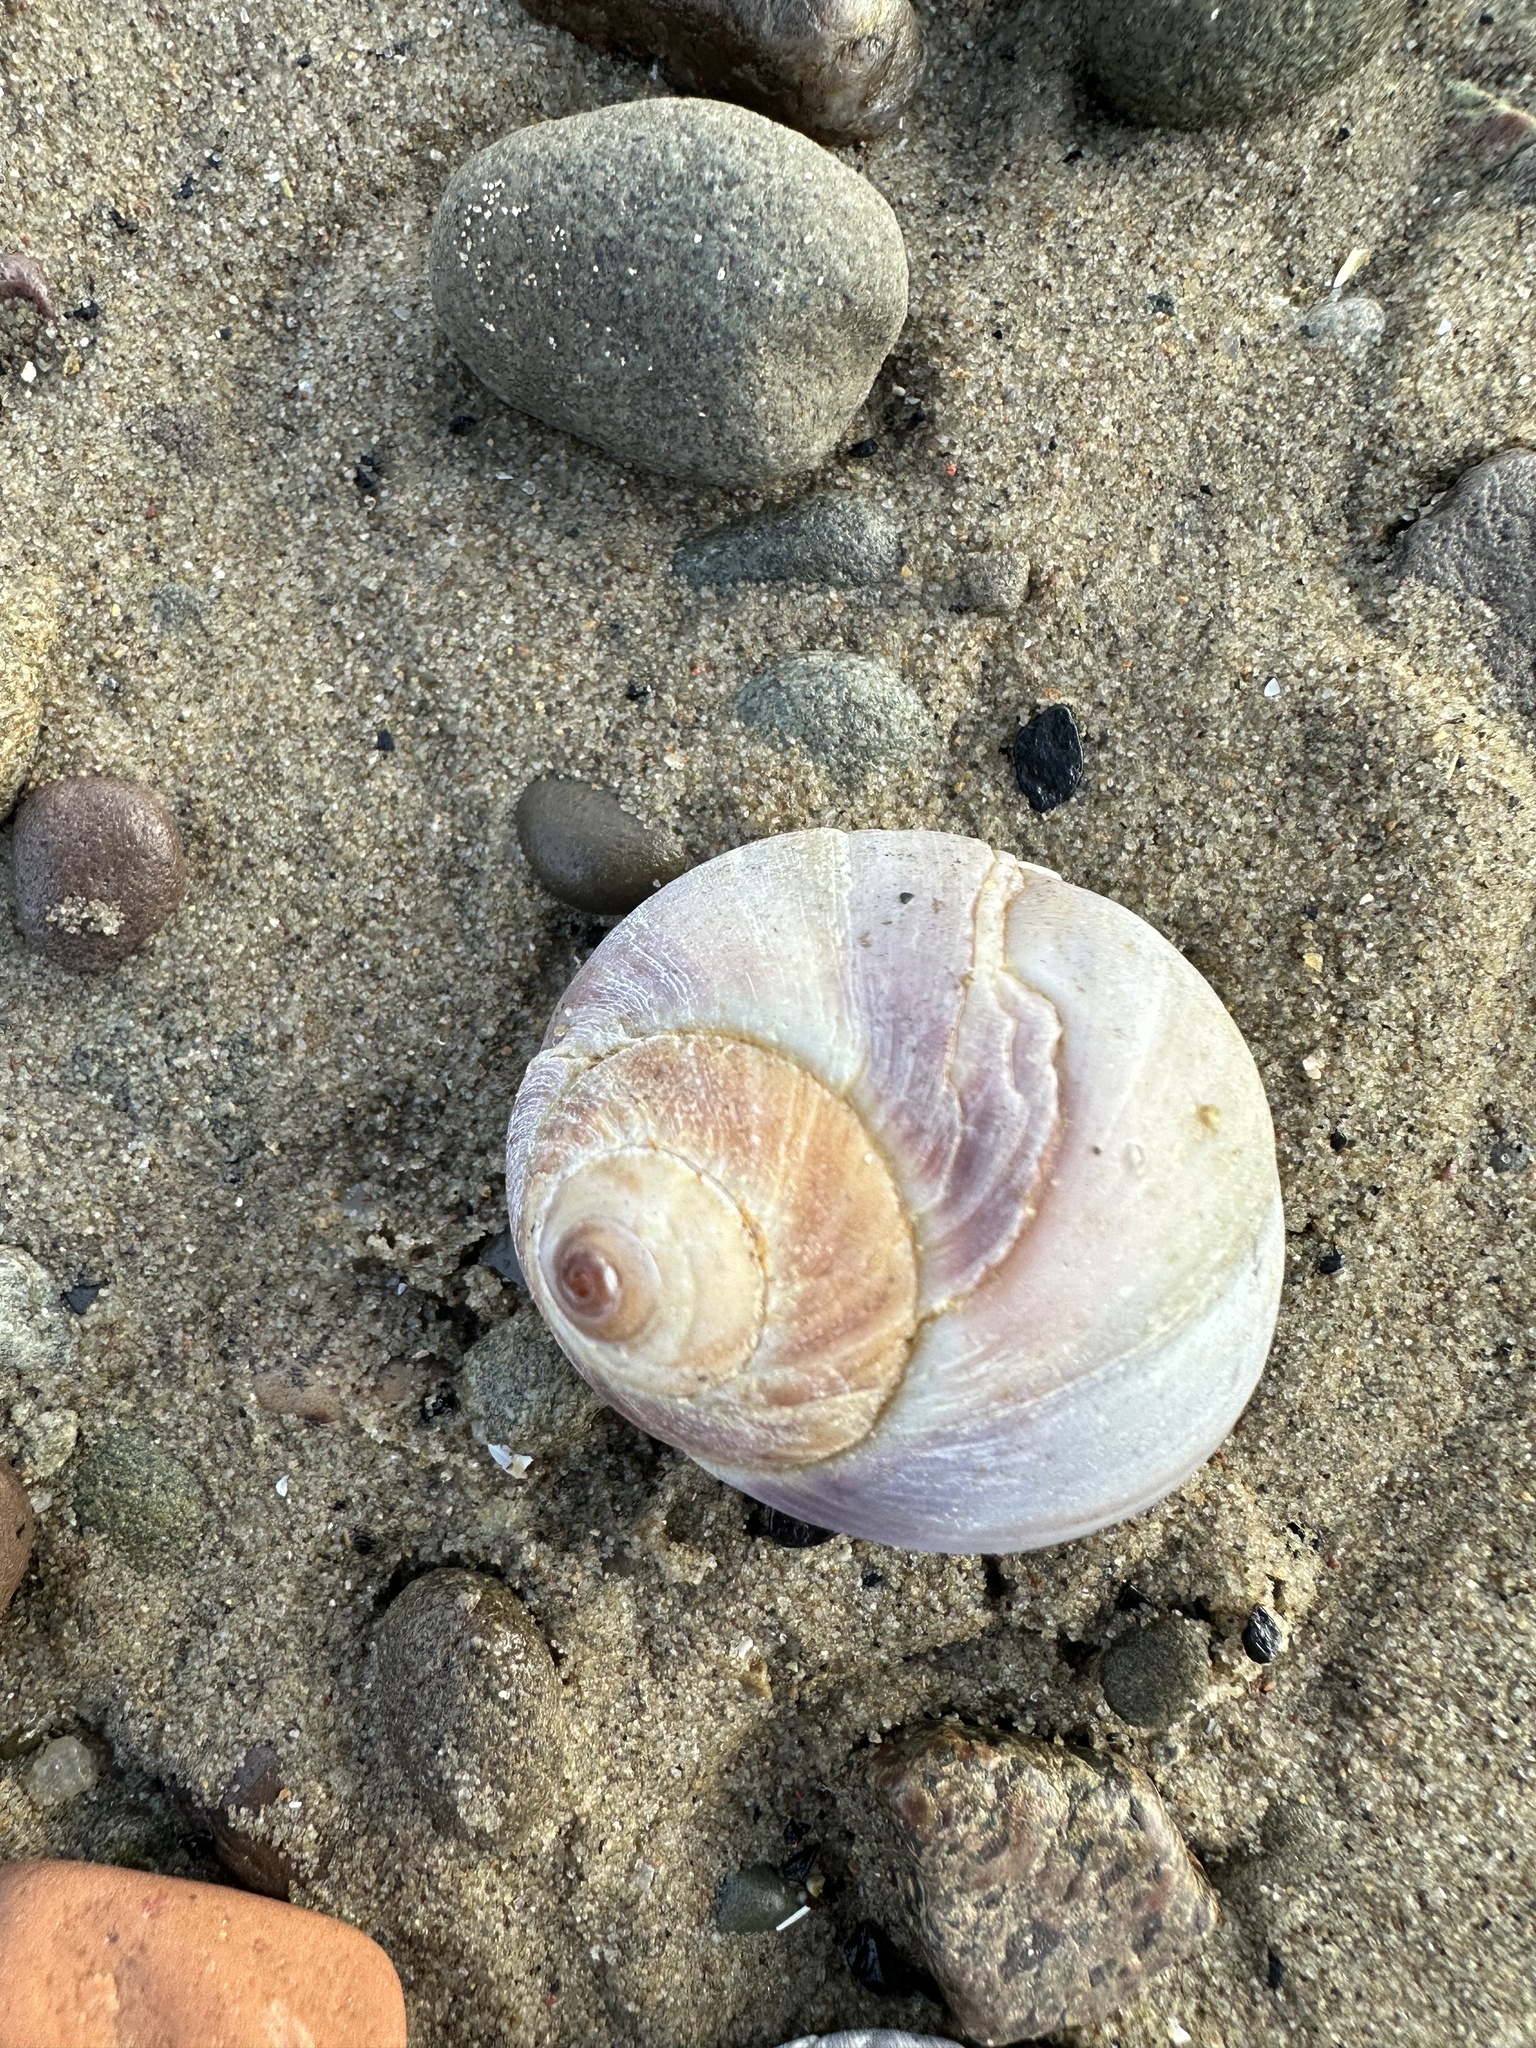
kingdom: Animalia
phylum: Mollusca
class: Gastropoda
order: Littorinimorpha
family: Naticidae
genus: Euspira
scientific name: Euspira heros
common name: Common northern moonsnail
